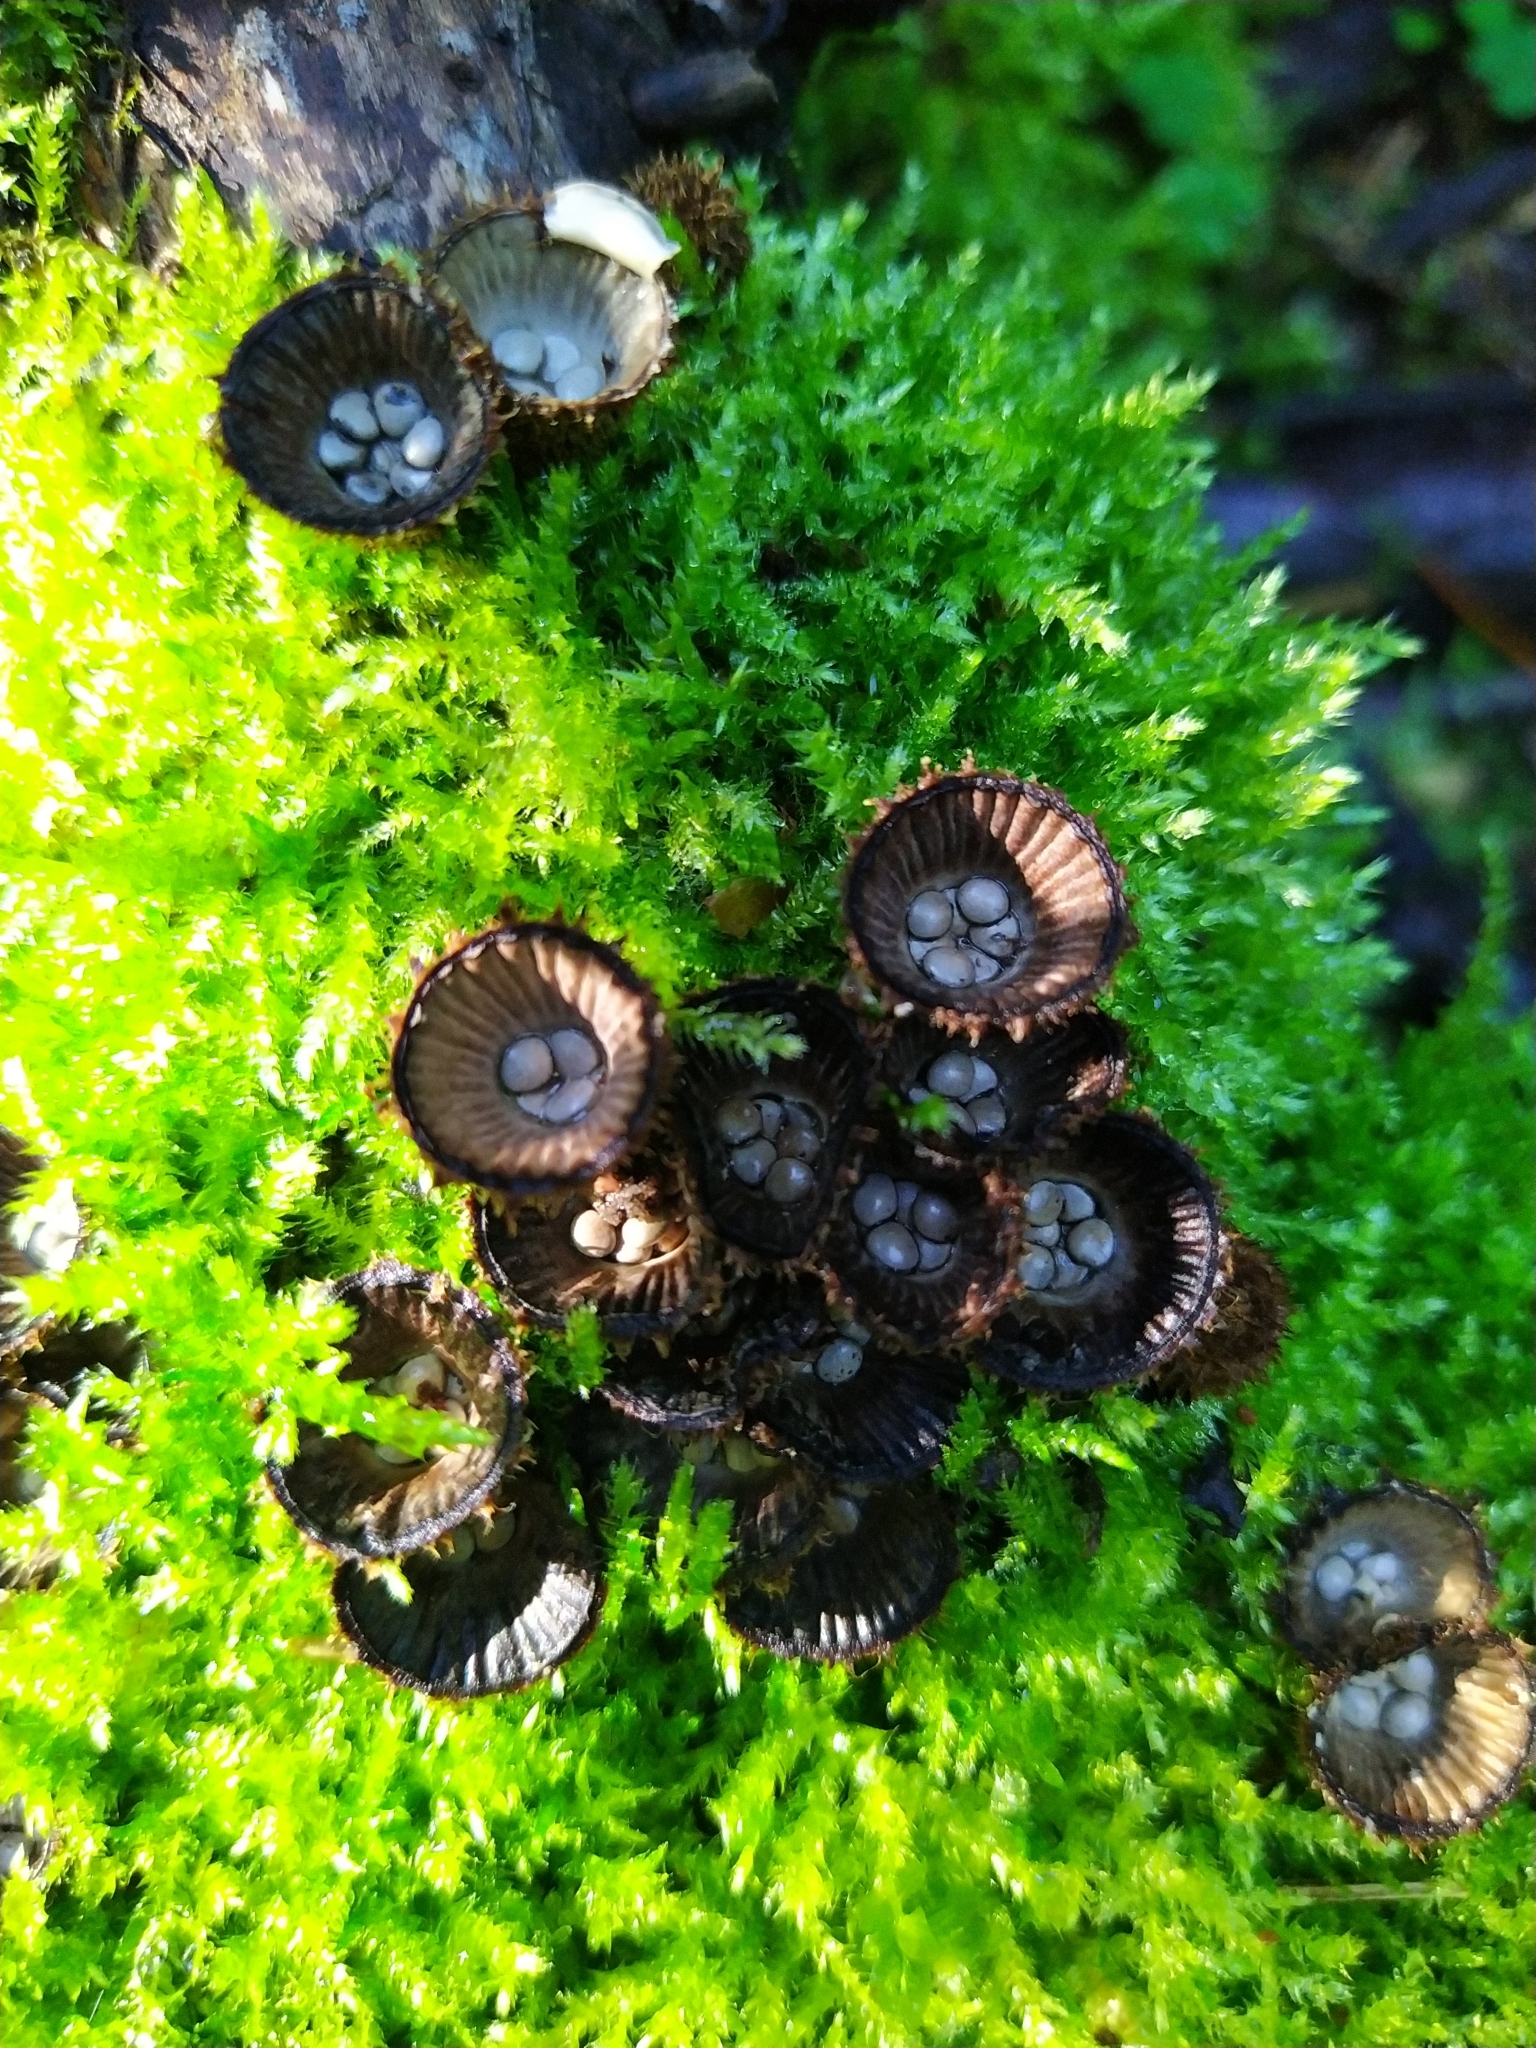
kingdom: Fungi
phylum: Basidiomycota
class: Agaricomycetes
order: Agaricales
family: Agaricaceae
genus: Cyathus
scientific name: Cyathus striatus
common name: Fluted bird's nest
